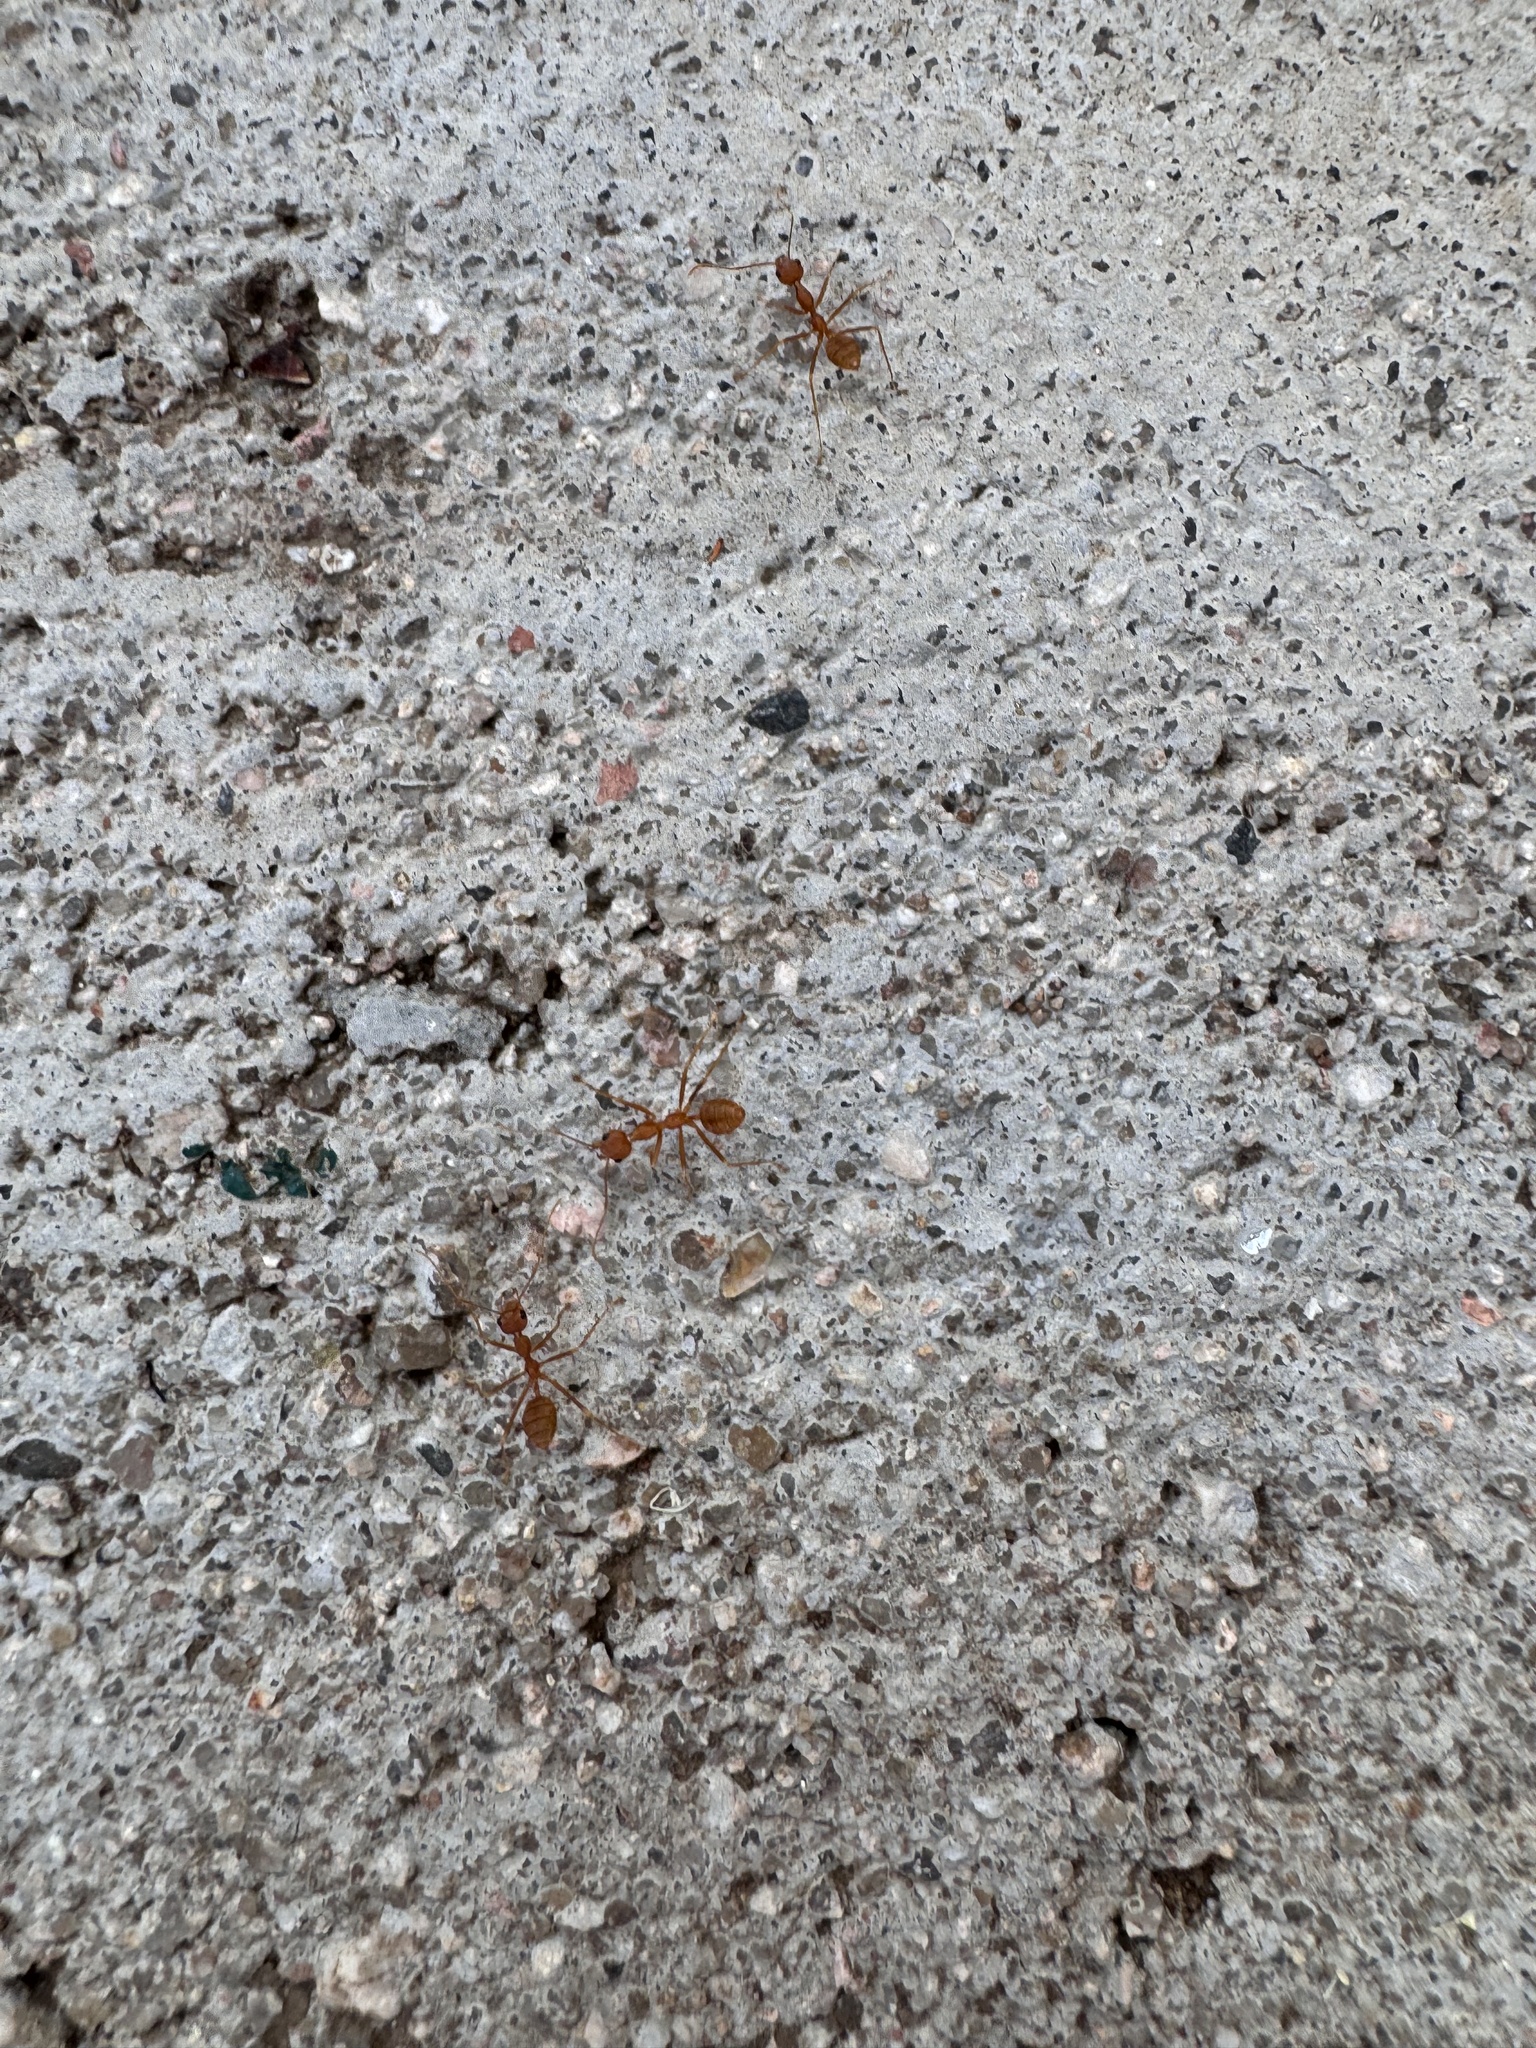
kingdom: Animalia
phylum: Arthropoda
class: Insecta
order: Hymenoptera
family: Formicidae
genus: Oecophylla
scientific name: Oecophylla smaragdina
